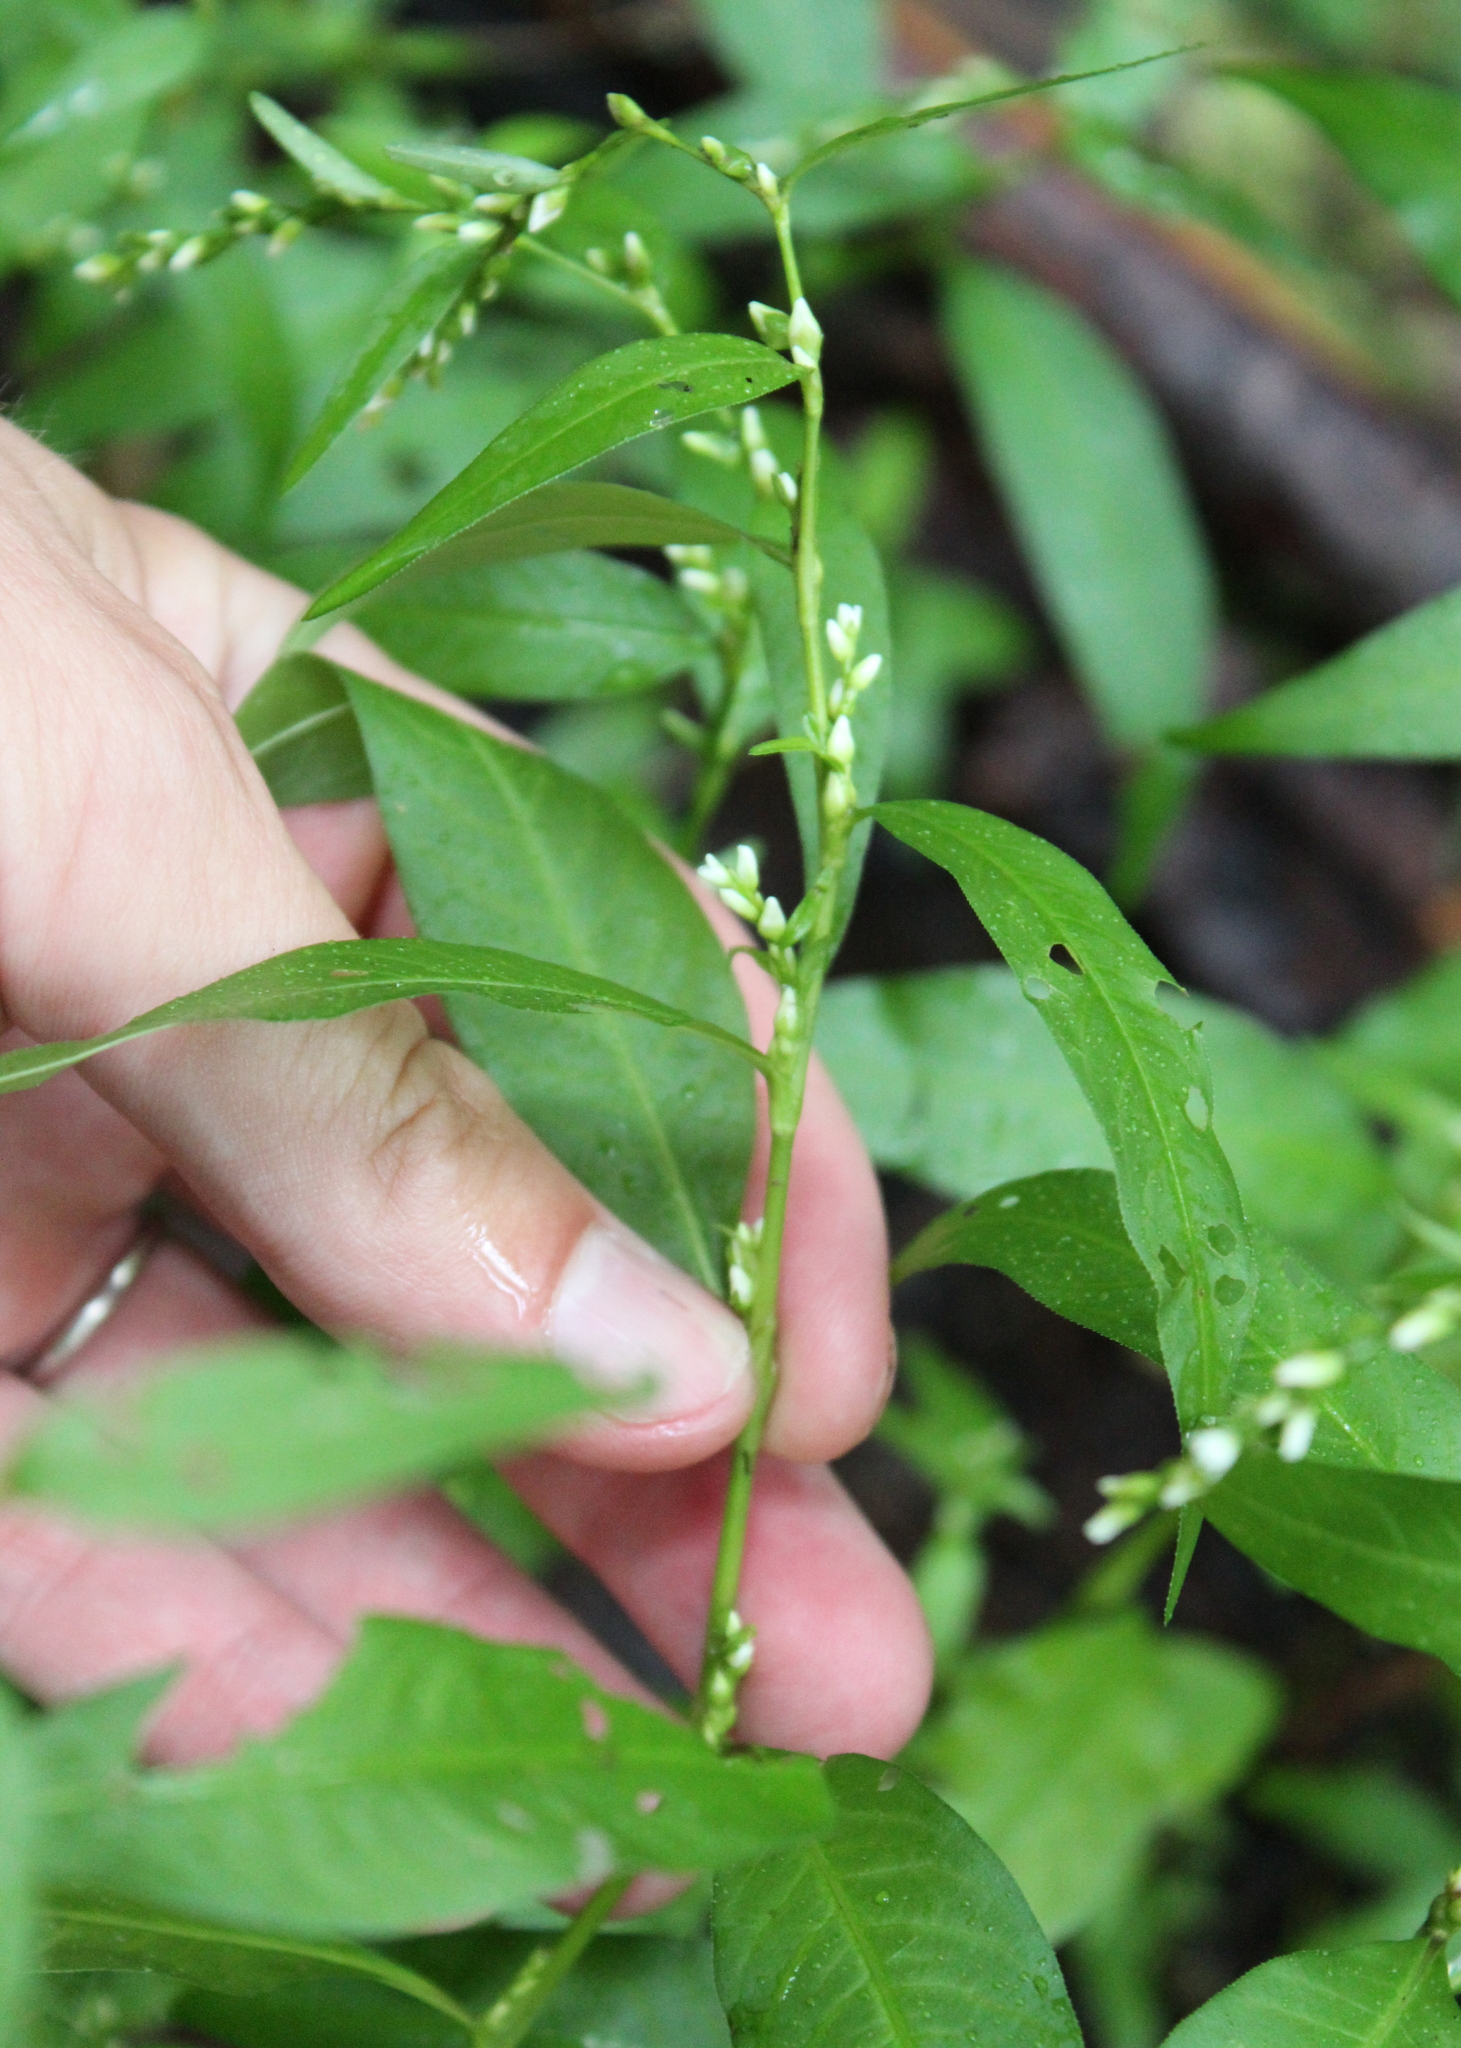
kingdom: Plantae
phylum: Tracheophyta
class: Magnoliopsida
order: Caryophyllales
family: Polygonaceae
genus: Persicaria
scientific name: Persicaria hydropiper
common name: Water-pepper
